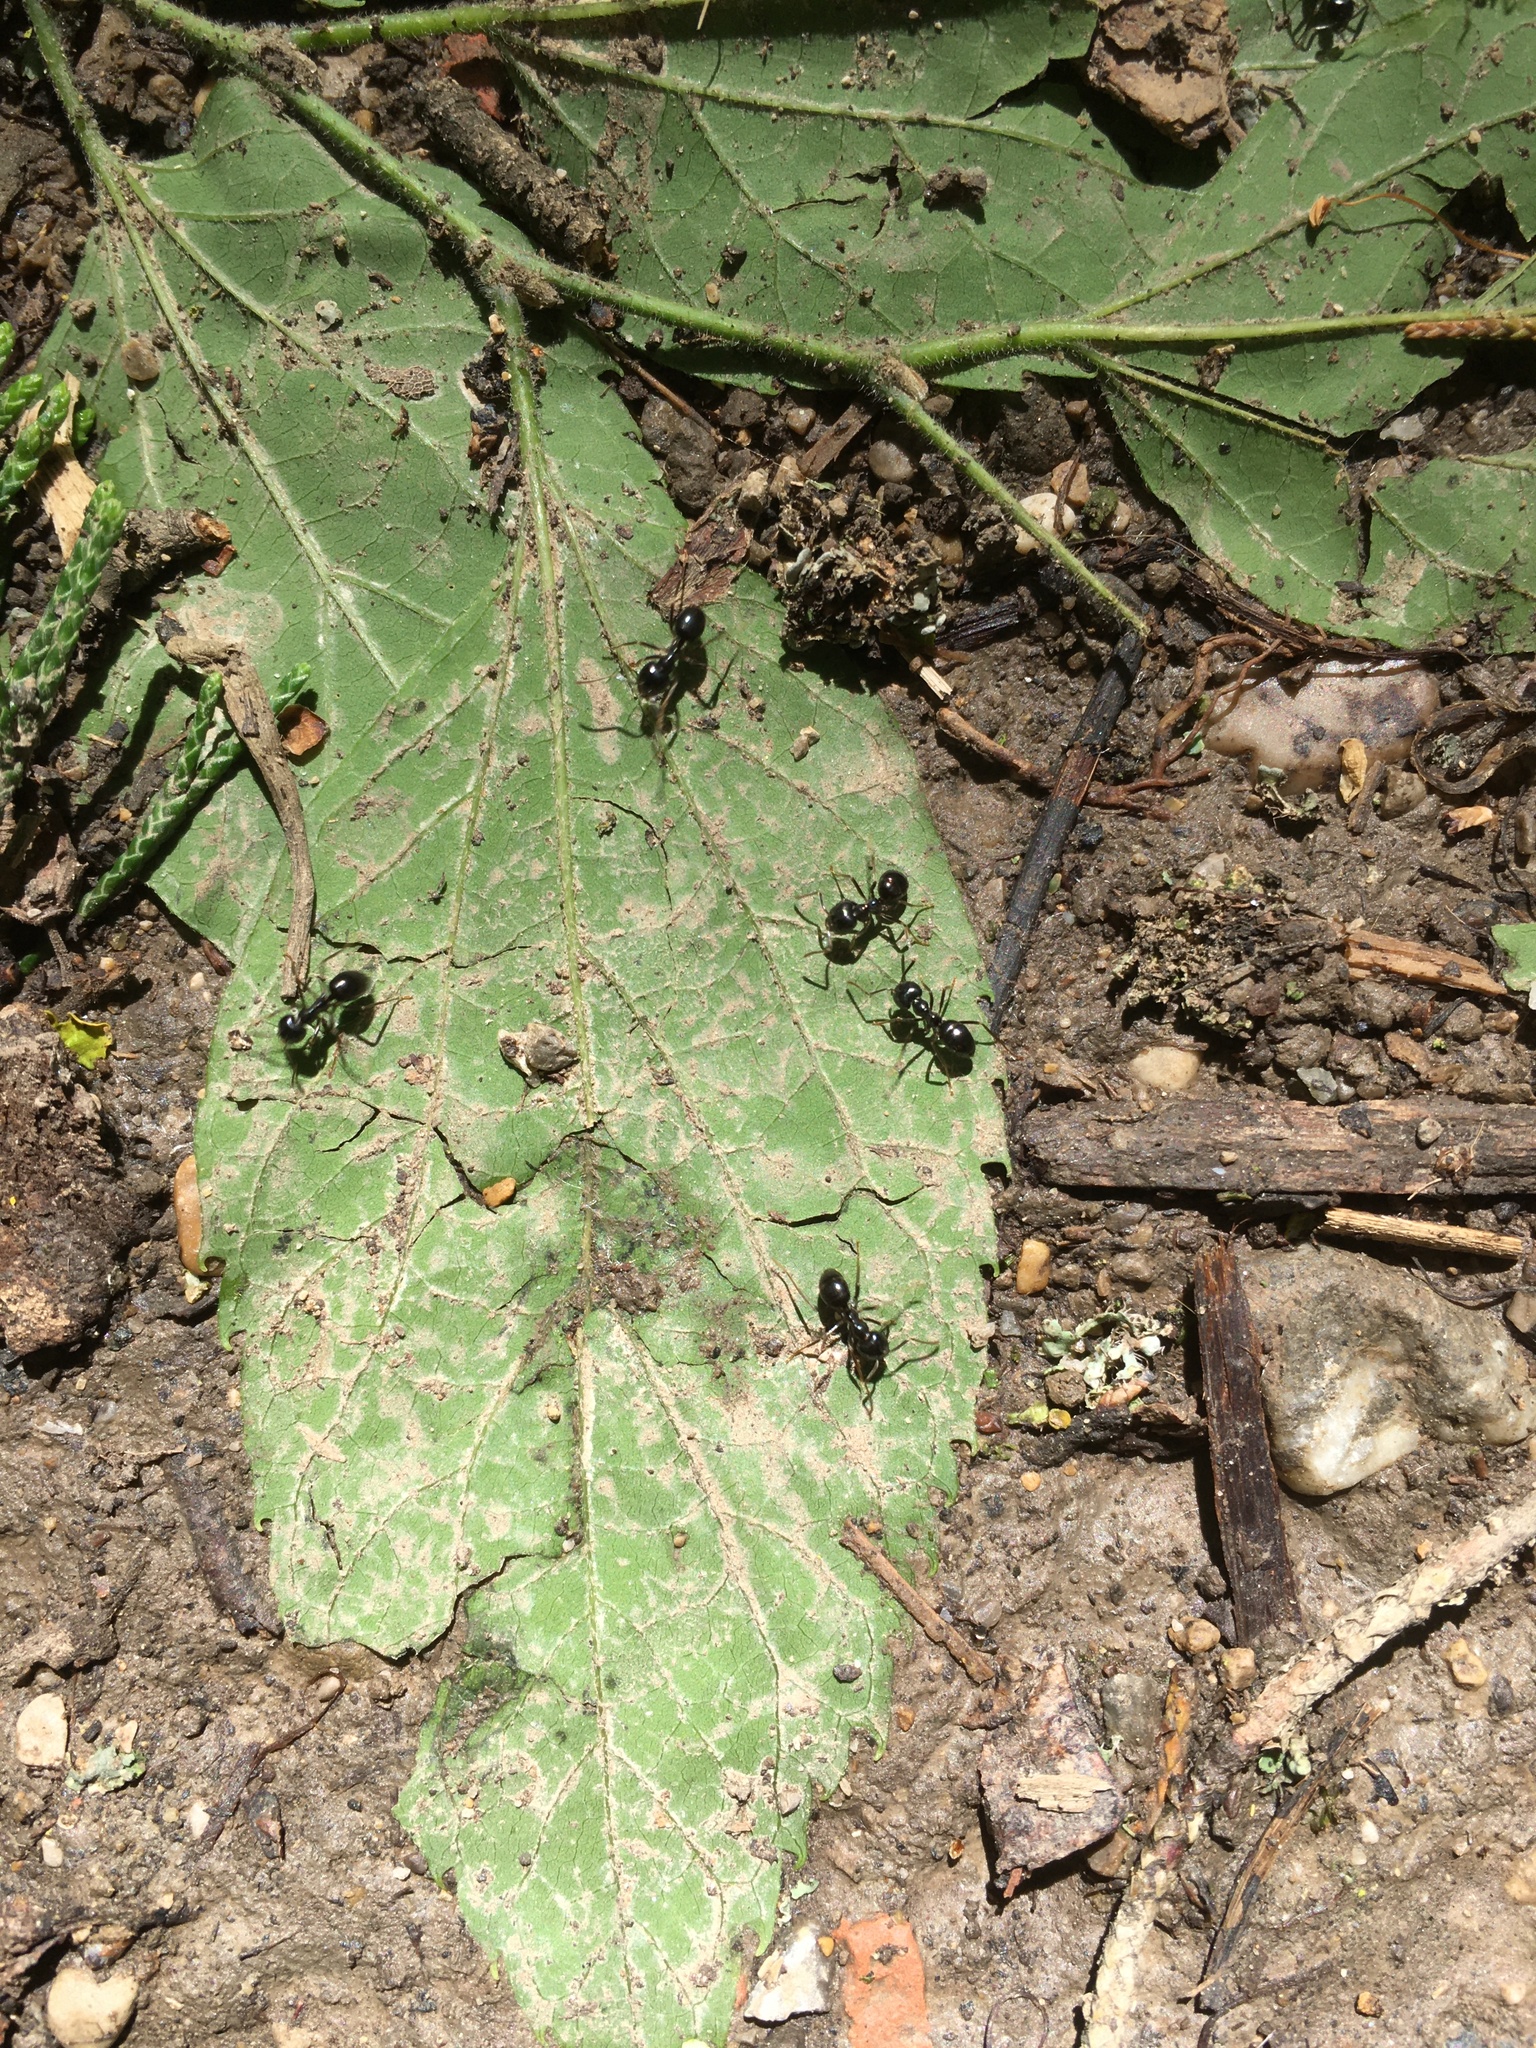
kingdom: Animalia
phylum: Arthropoda
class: Insecta
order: Hymenoptera
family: Formicidae
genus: Lasius
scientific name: Lasius fuliginosus
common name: Jet ant
